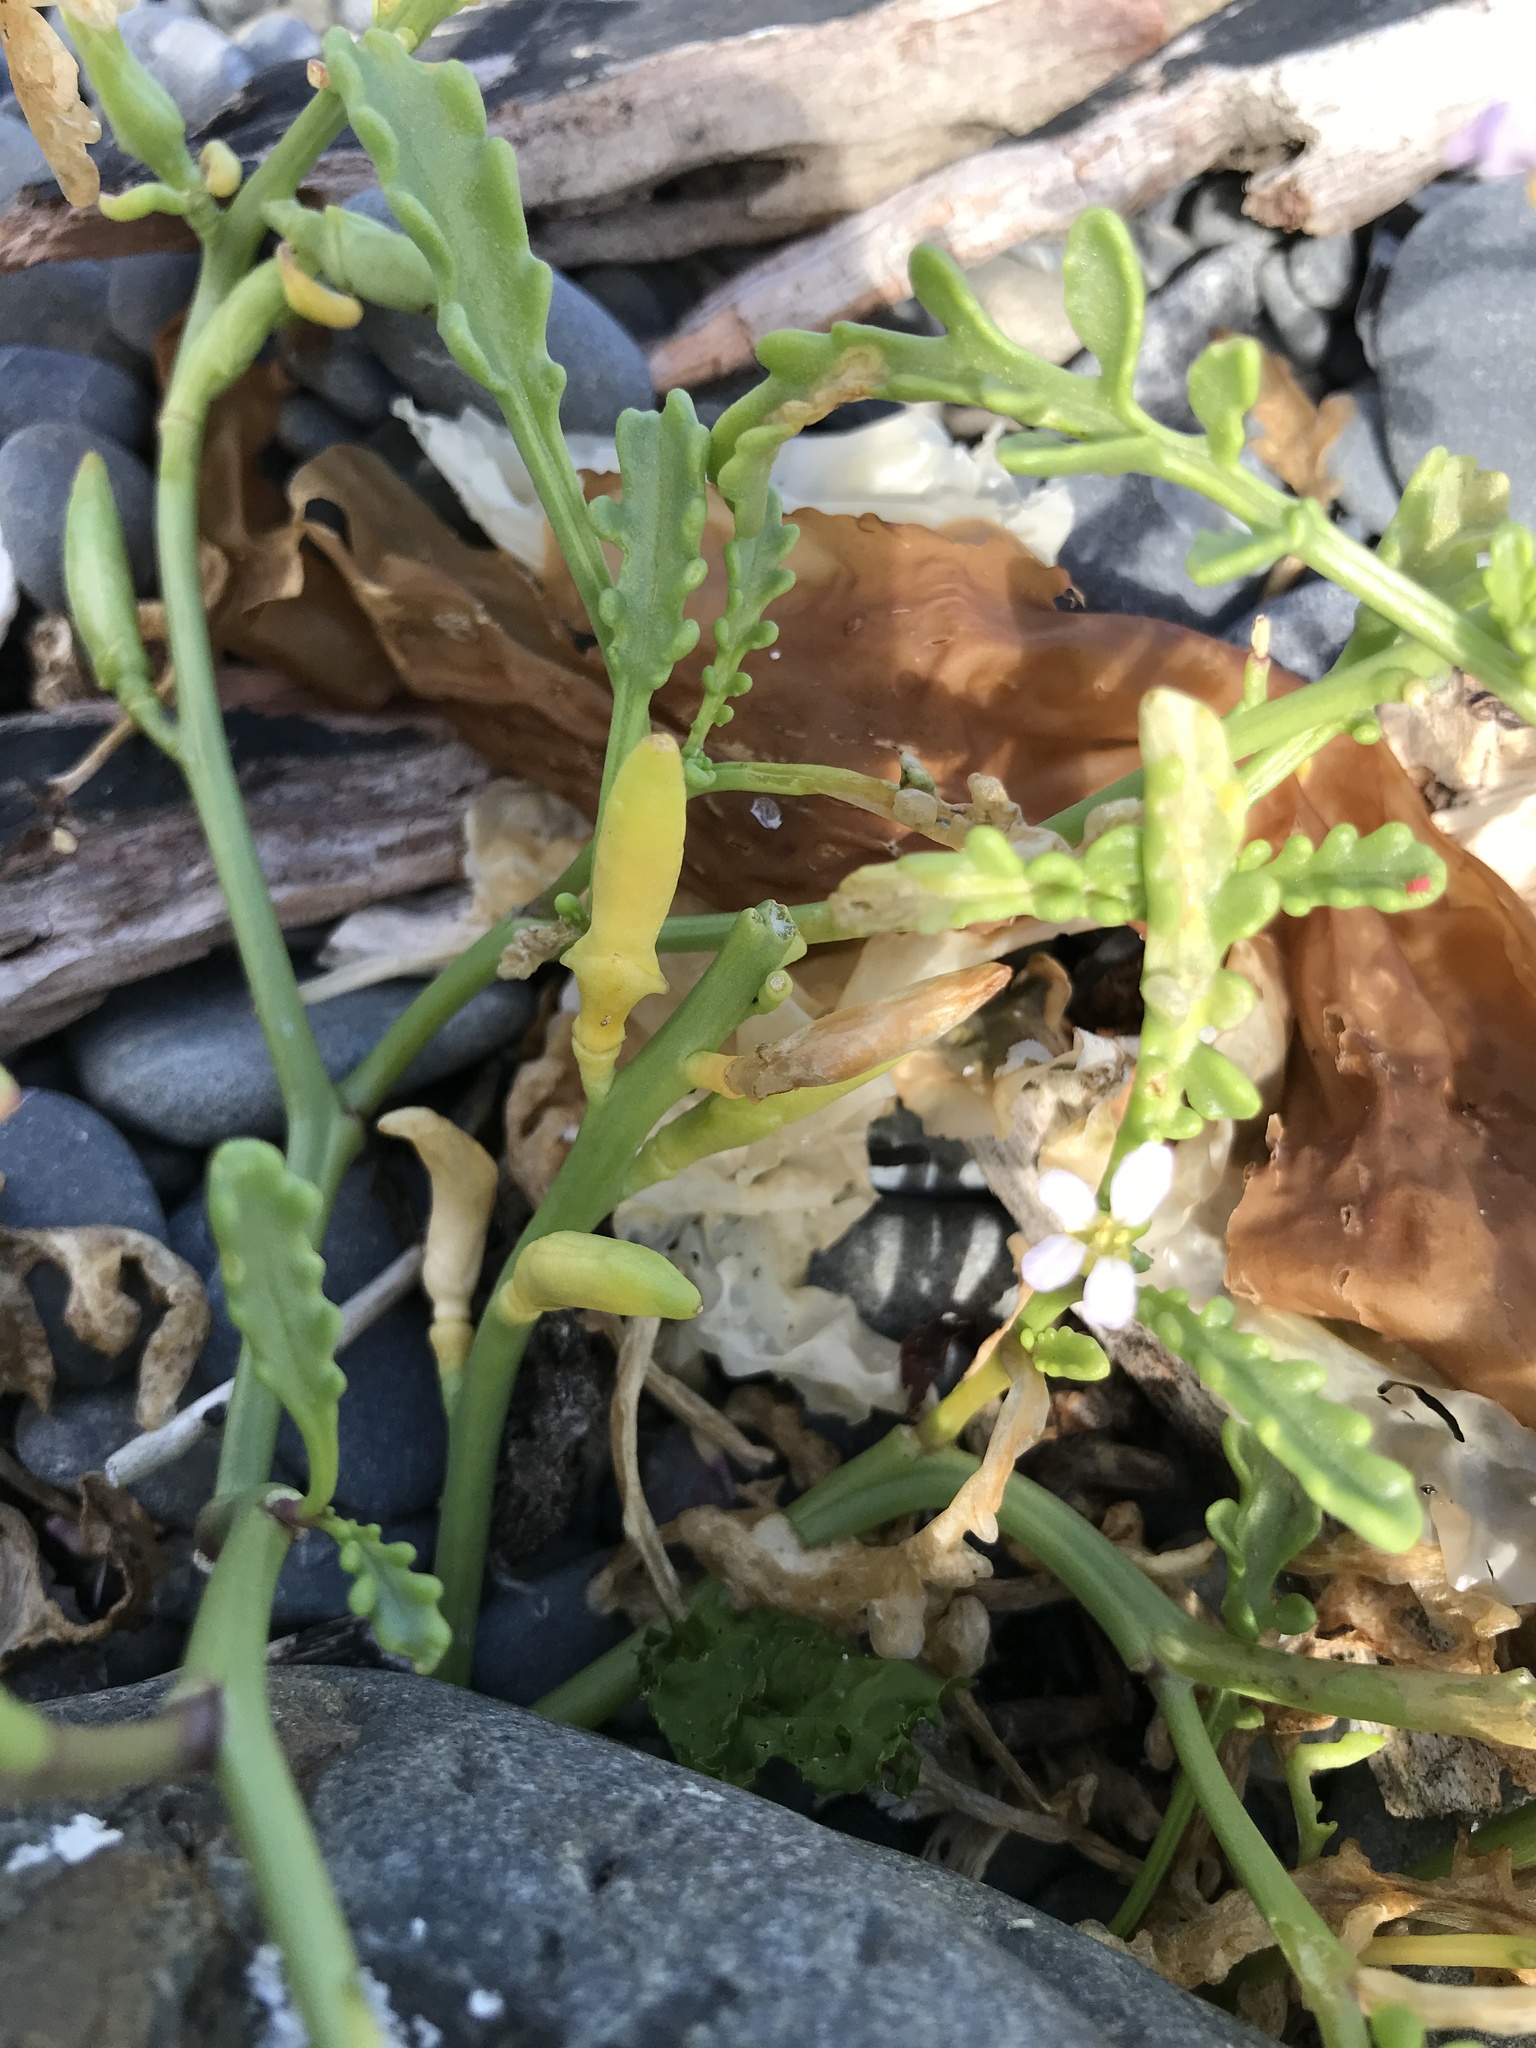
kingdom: Plantae
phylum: Tracheophyta
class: Magnoliopsida
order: Brassicales
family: Brassicaceae
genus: Cakile
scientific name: Cakile maritima
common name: Sea rocket
